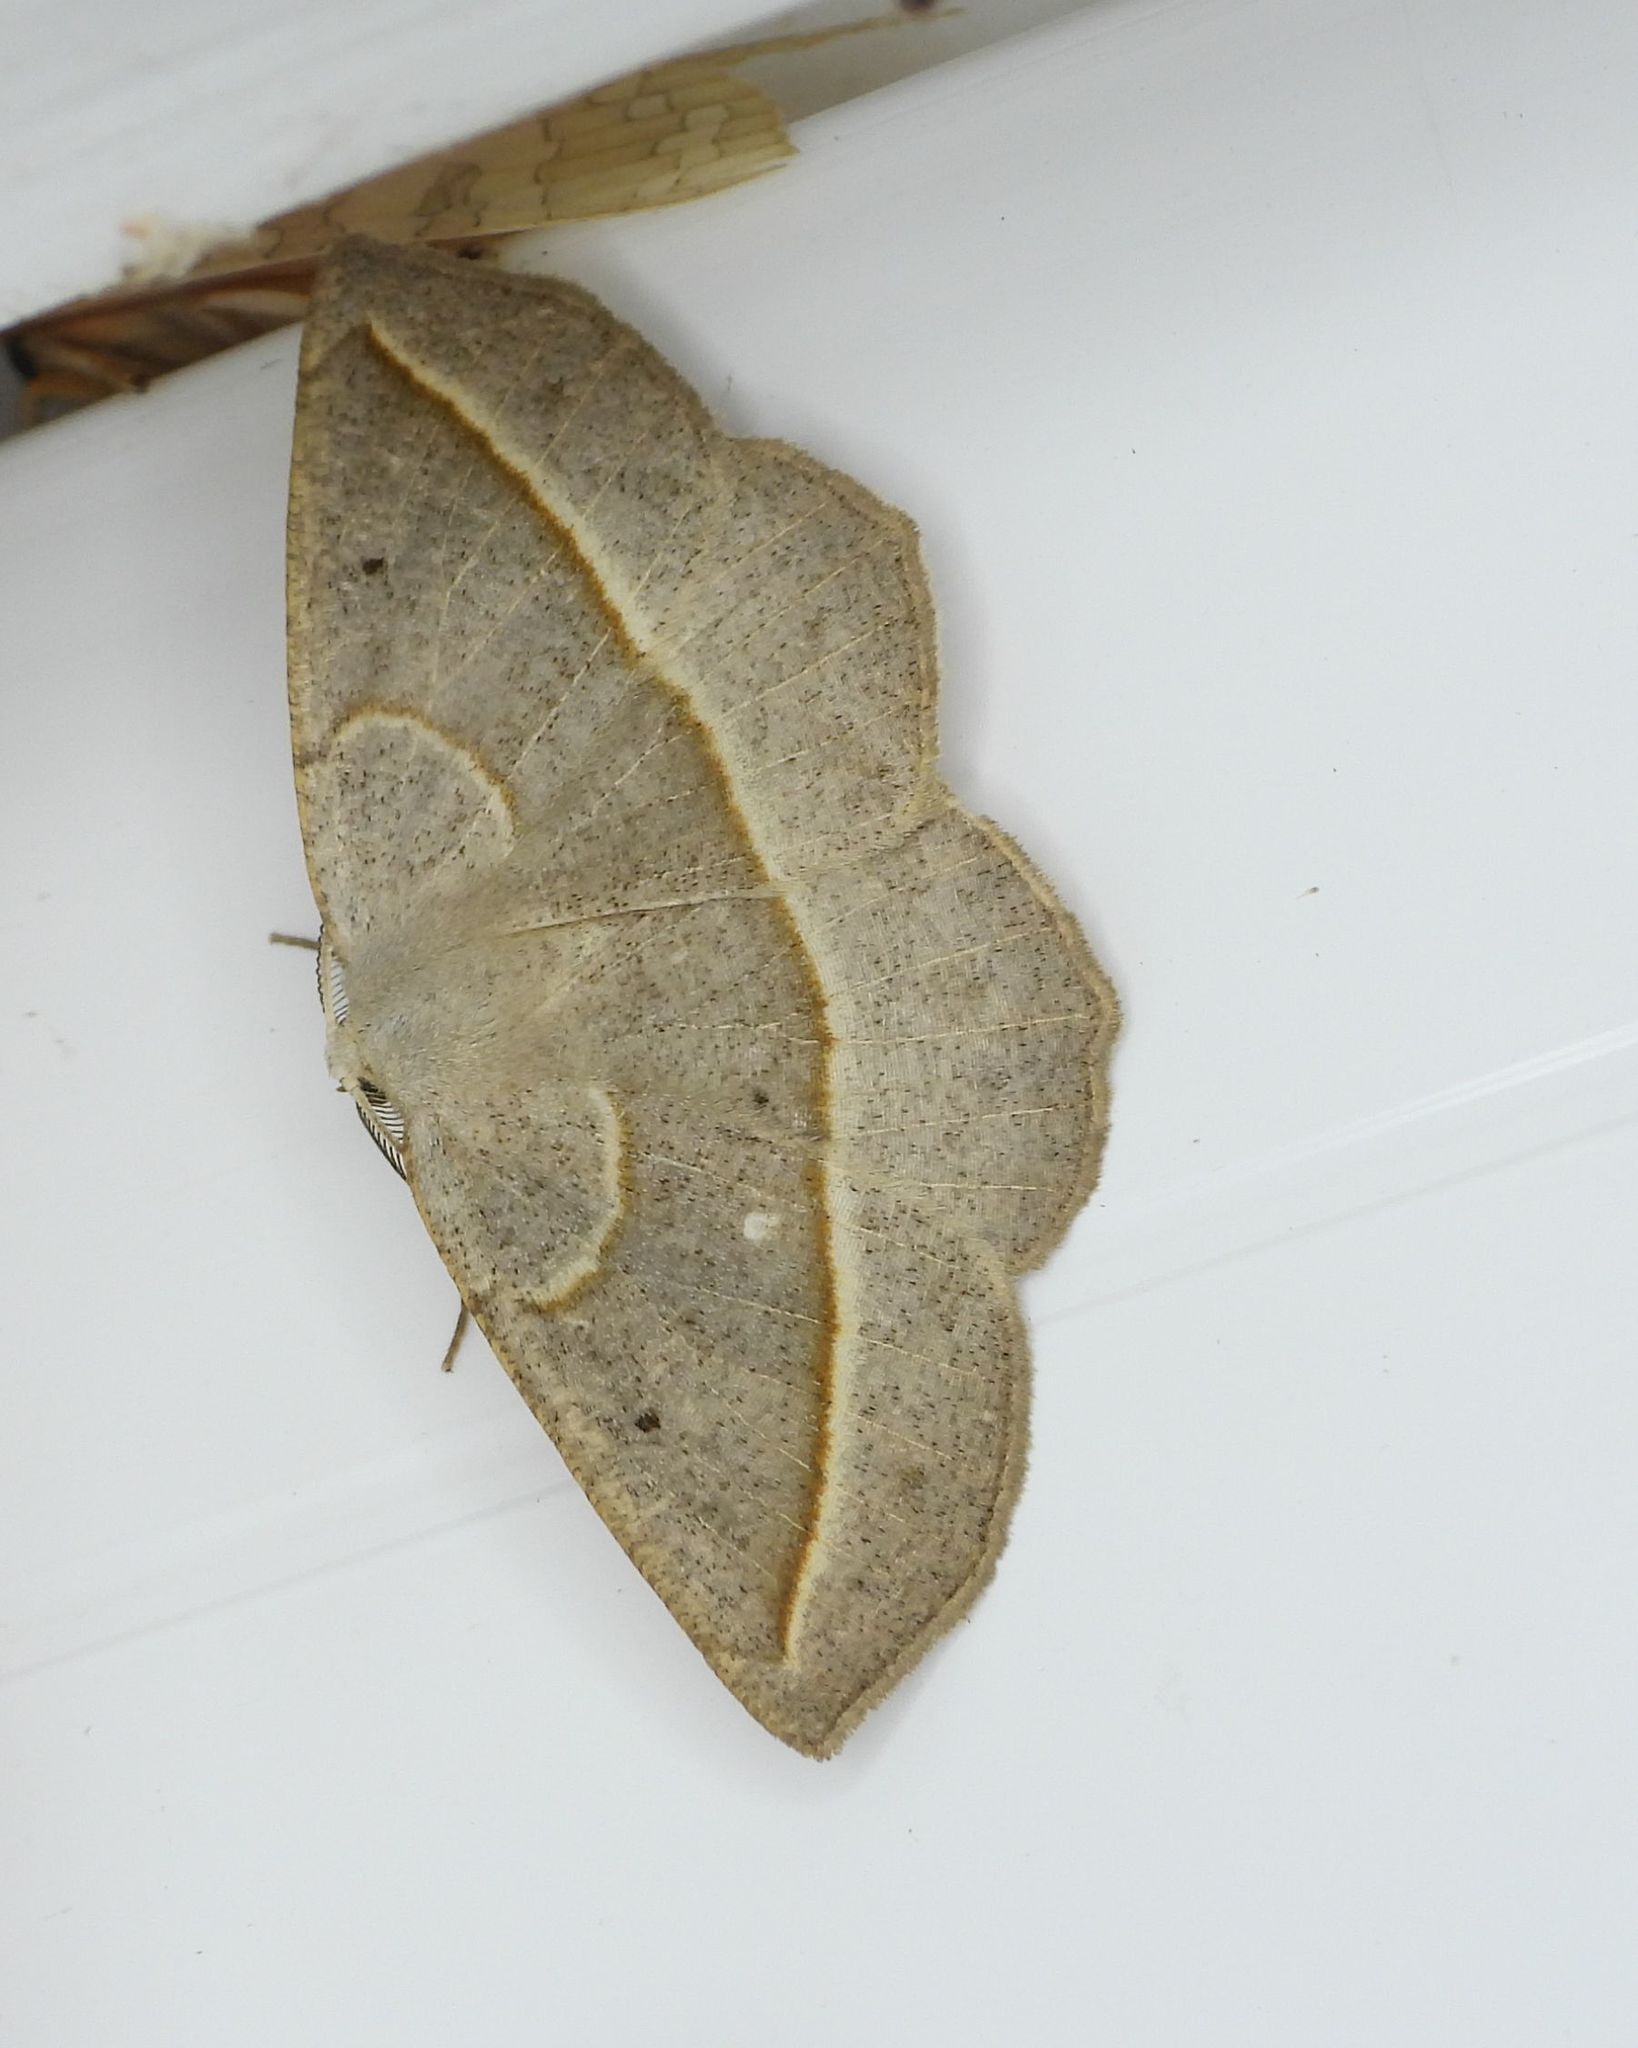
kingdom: Animalia
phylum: Arthropoda
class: Insecta
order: Lepidoptera
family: Geometridae
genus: Eusarca
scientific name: Eusarca confusaria
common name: Confused eusarca
